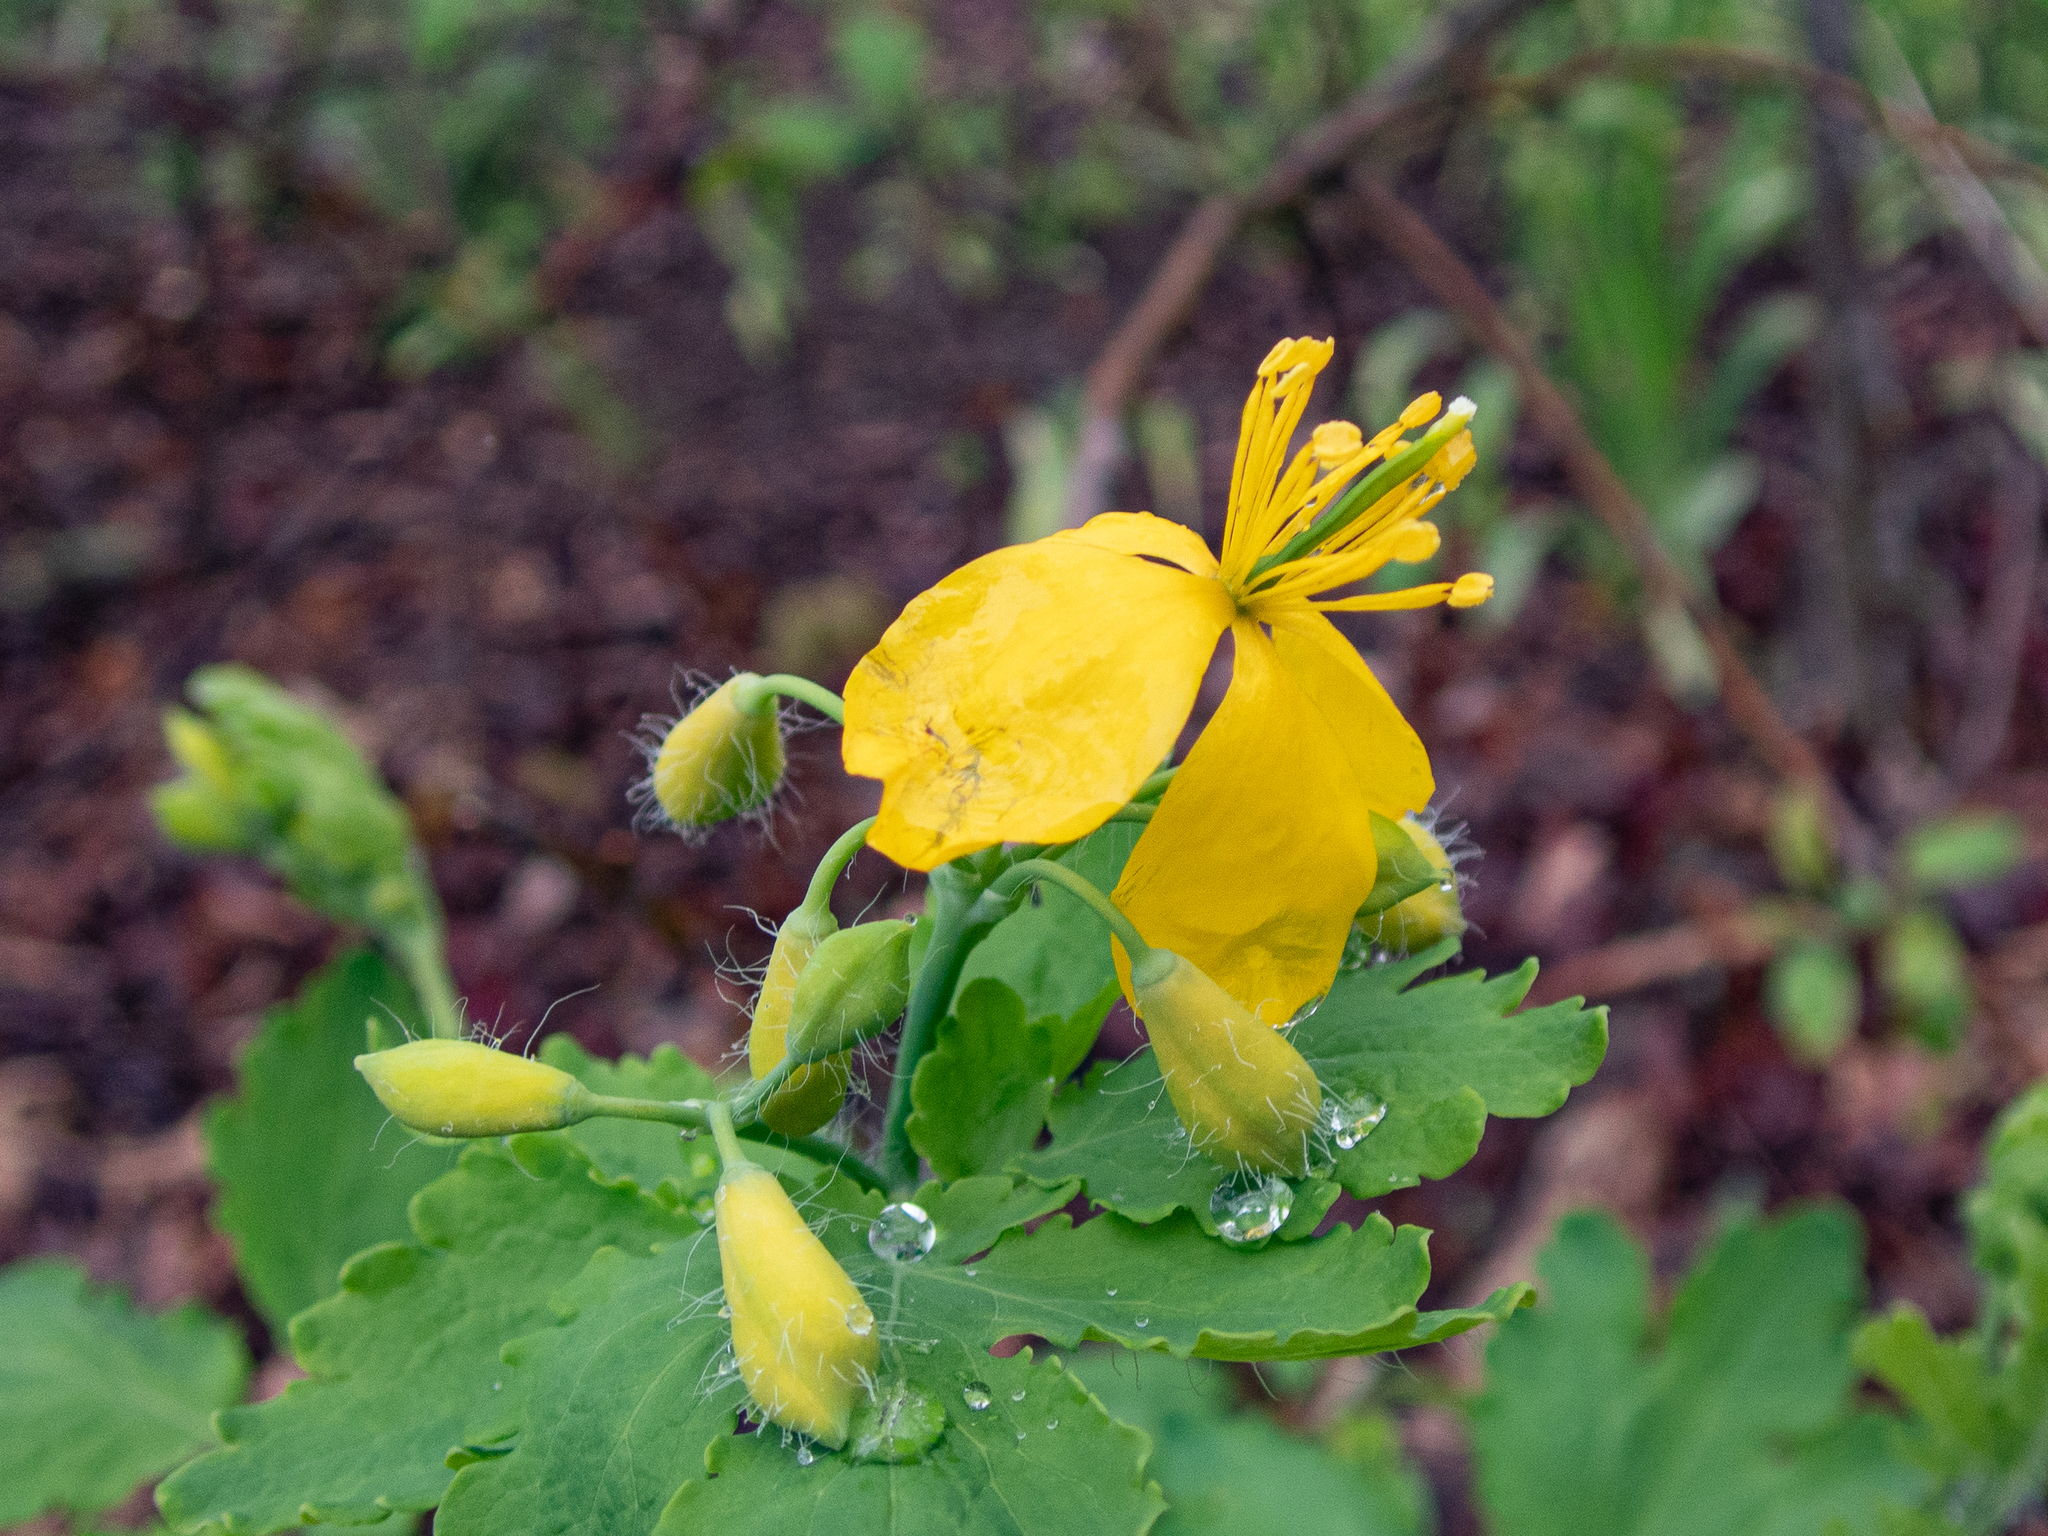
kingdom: Plantae
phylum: Tracheophyta
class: Magnoliopsida
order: Ranunculales
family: Papaveraceae
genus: Chelidonium
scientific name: Chelidonium majus
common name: Greater celandine
